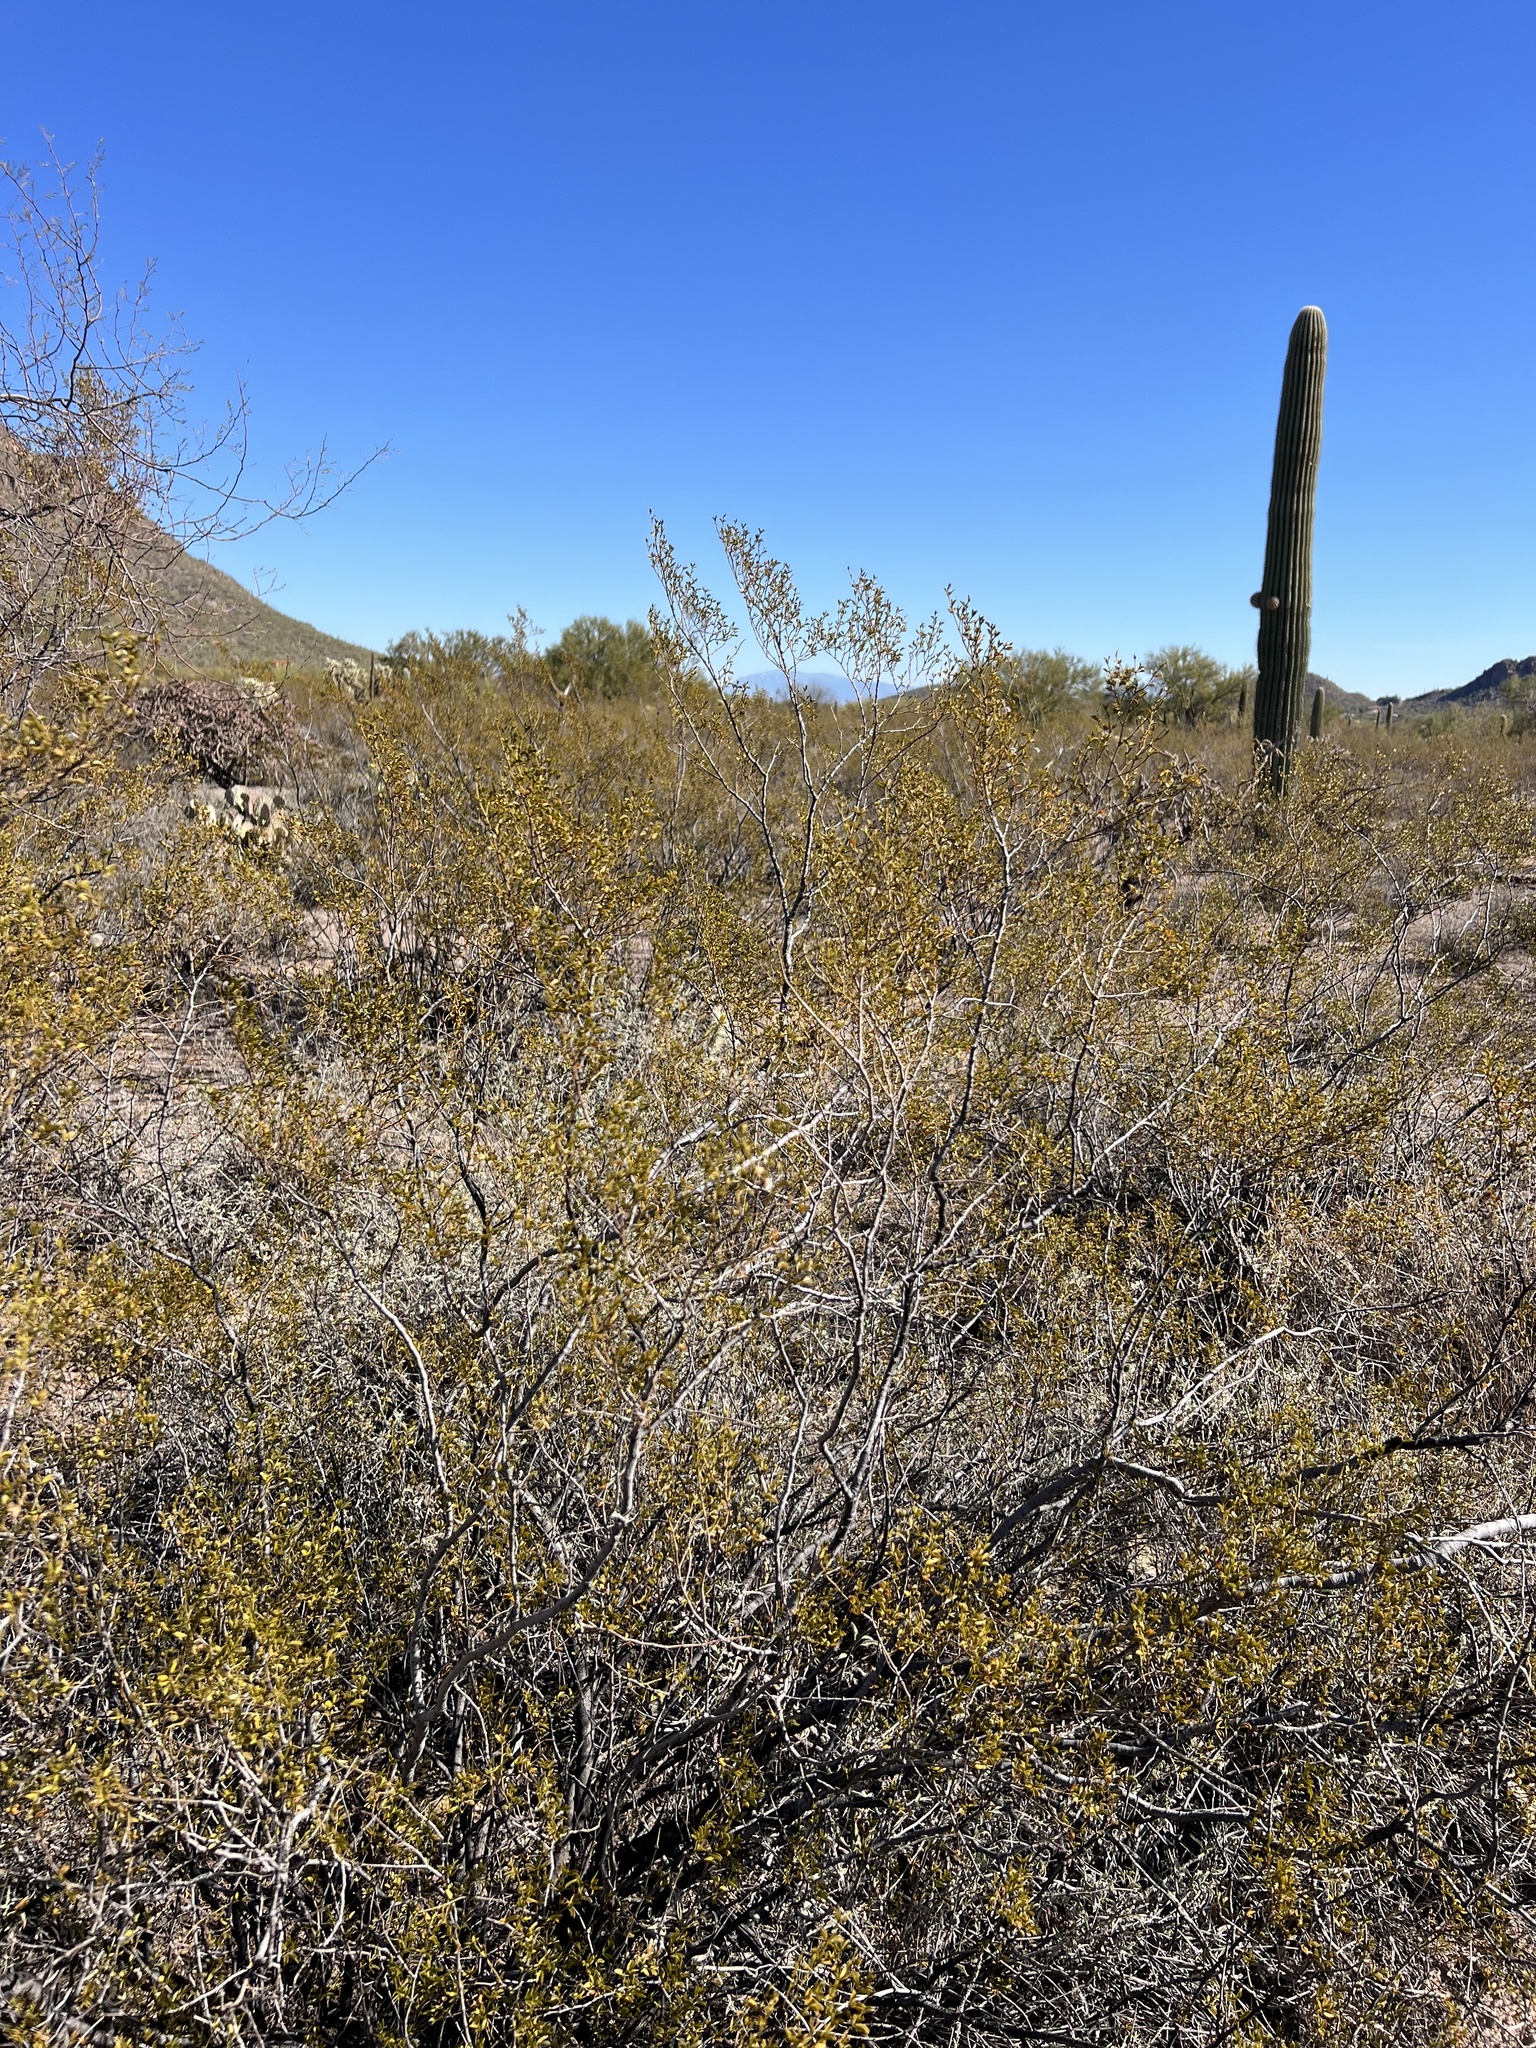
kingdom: Plantae
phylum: Tracheophyta
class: Magnoliopsida
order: Zygophyllales
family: Zygophyllaceae
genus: Larrea
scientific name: Larrea tridentata
